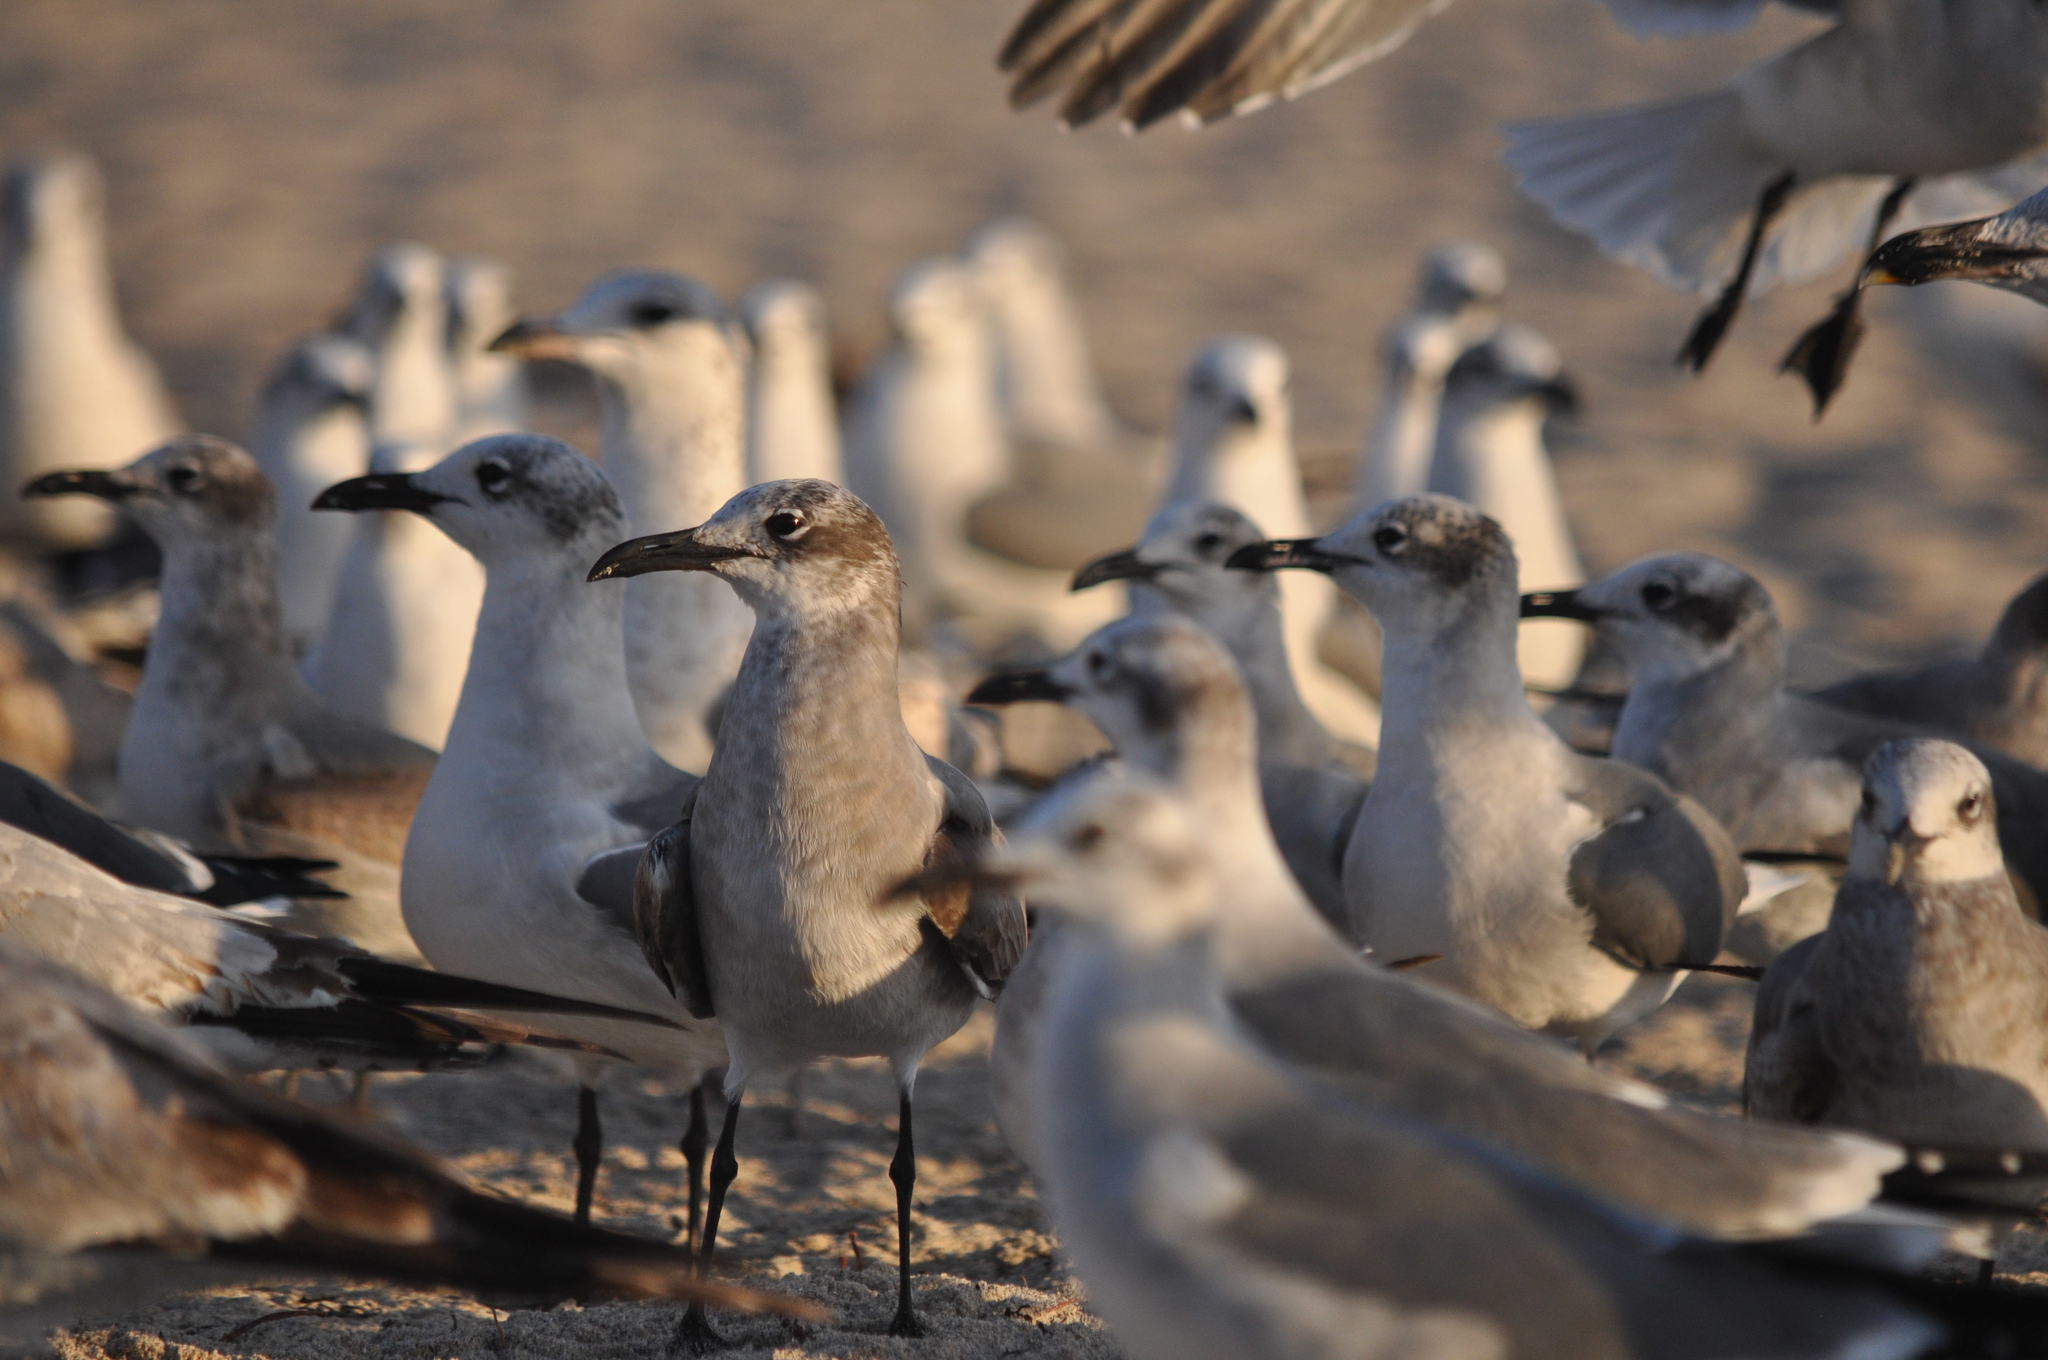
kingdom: Animalia
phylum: Chordata
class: Aves
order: Charadriiformes
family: Laridae
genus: Leucophaeus
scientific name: Leucophaeus atricilla
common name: Laughing gull
